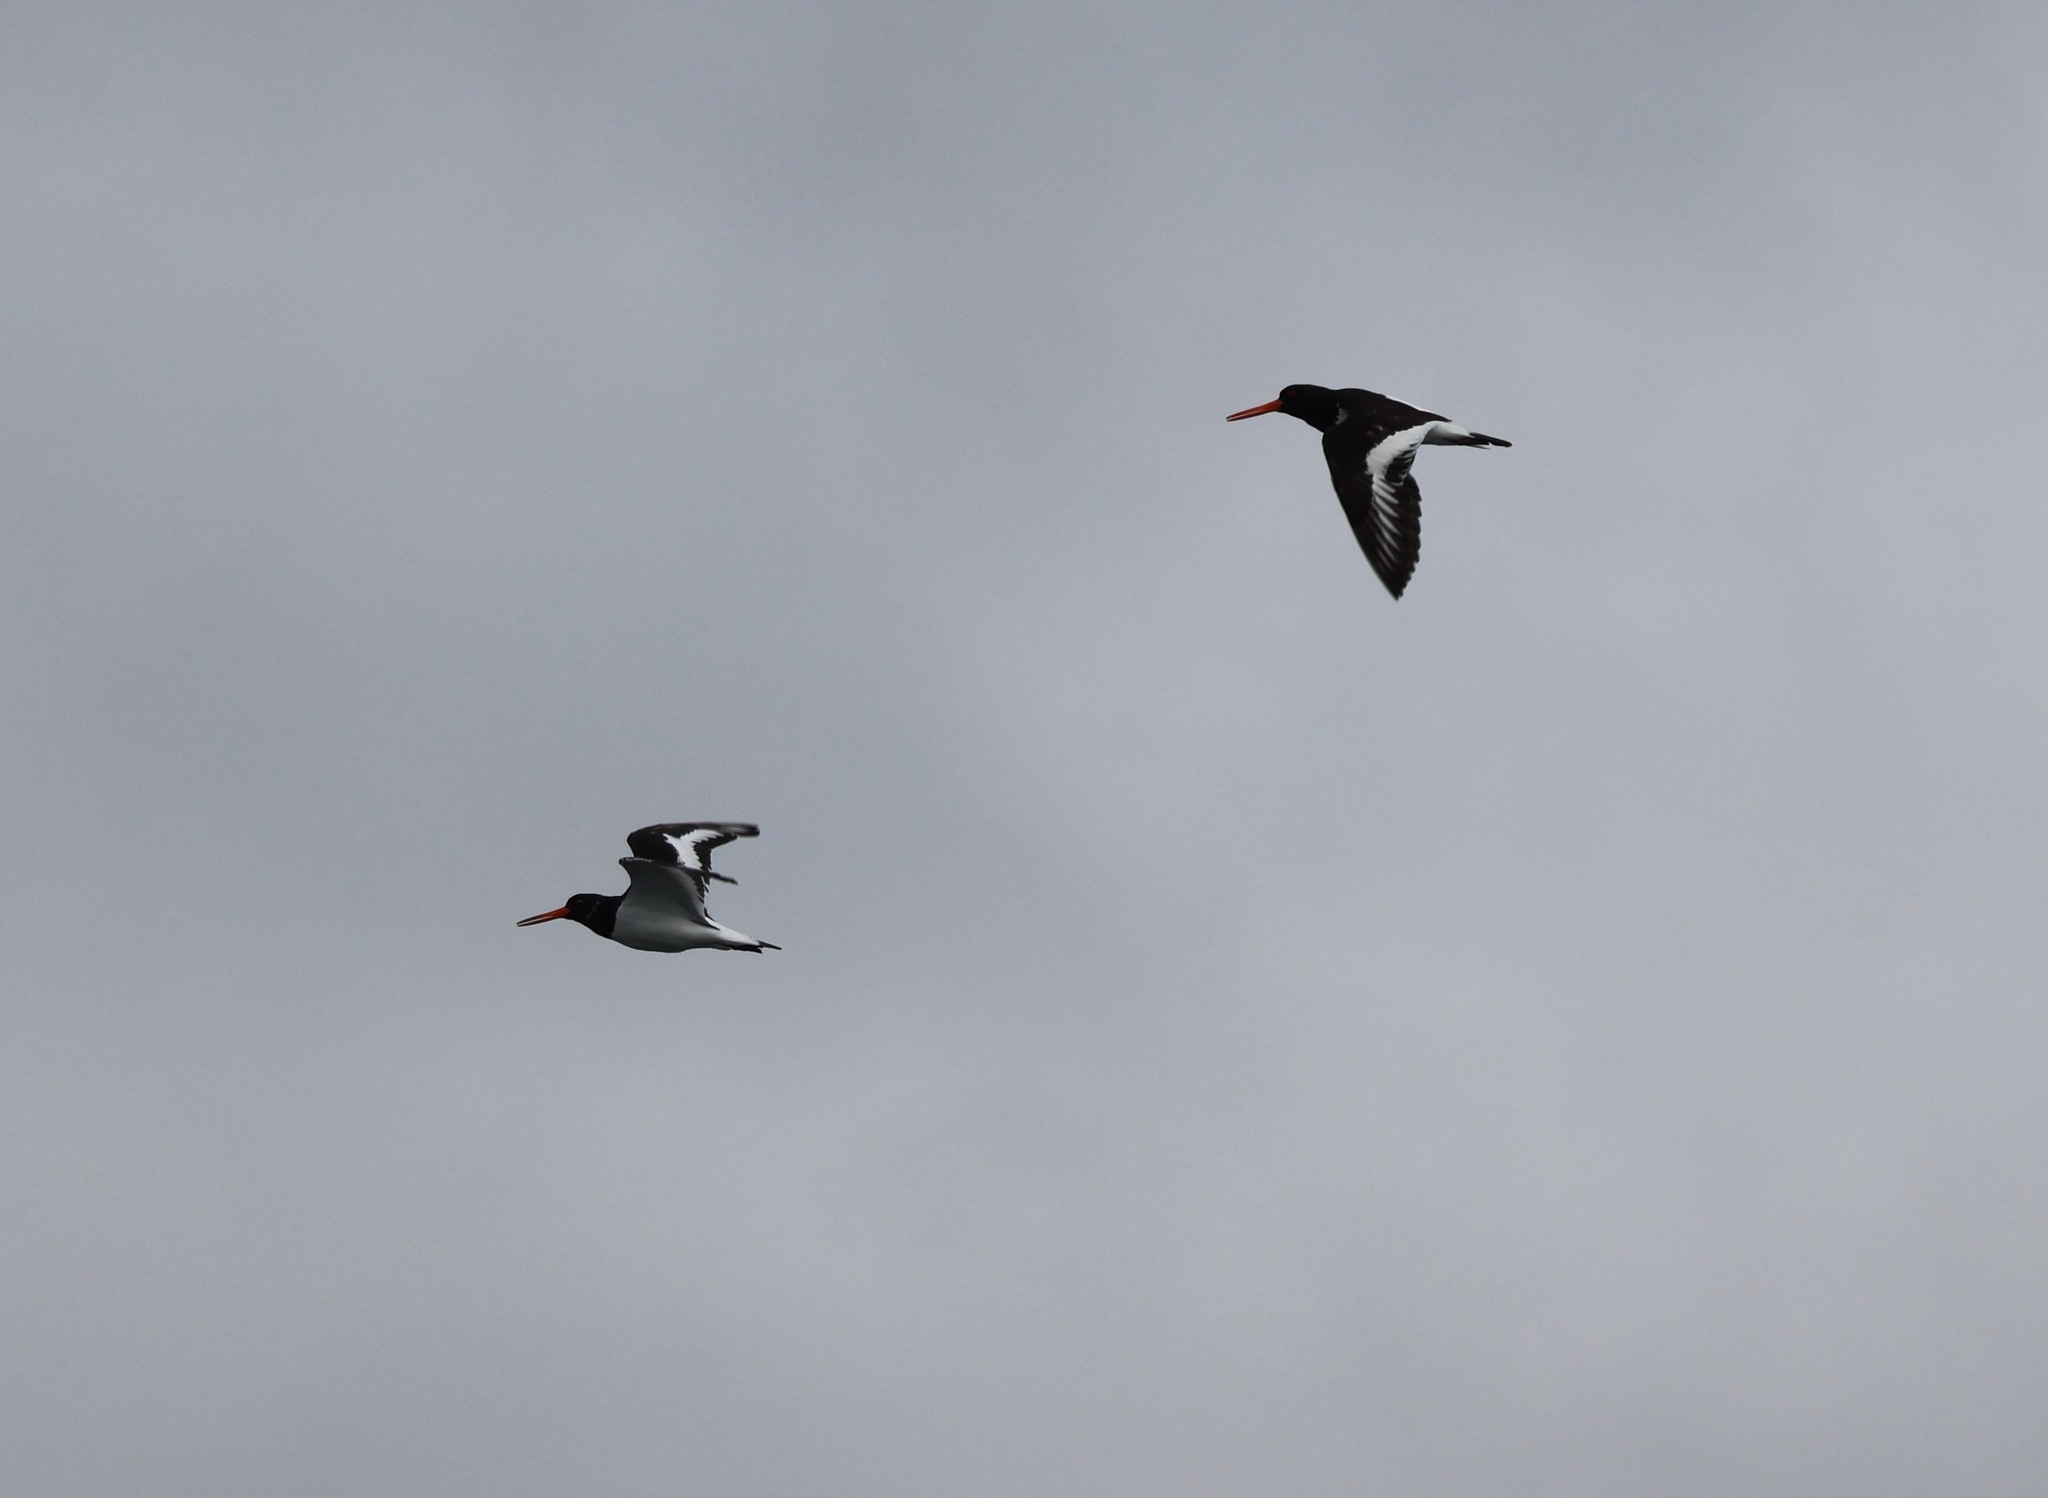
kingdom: Animalia
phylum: Chordata
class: Aves
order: Charadriiformes
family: Haematopodidae
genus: Haematopus
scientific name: Haematopus ostralegus
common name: Eurasian oystercatcher
